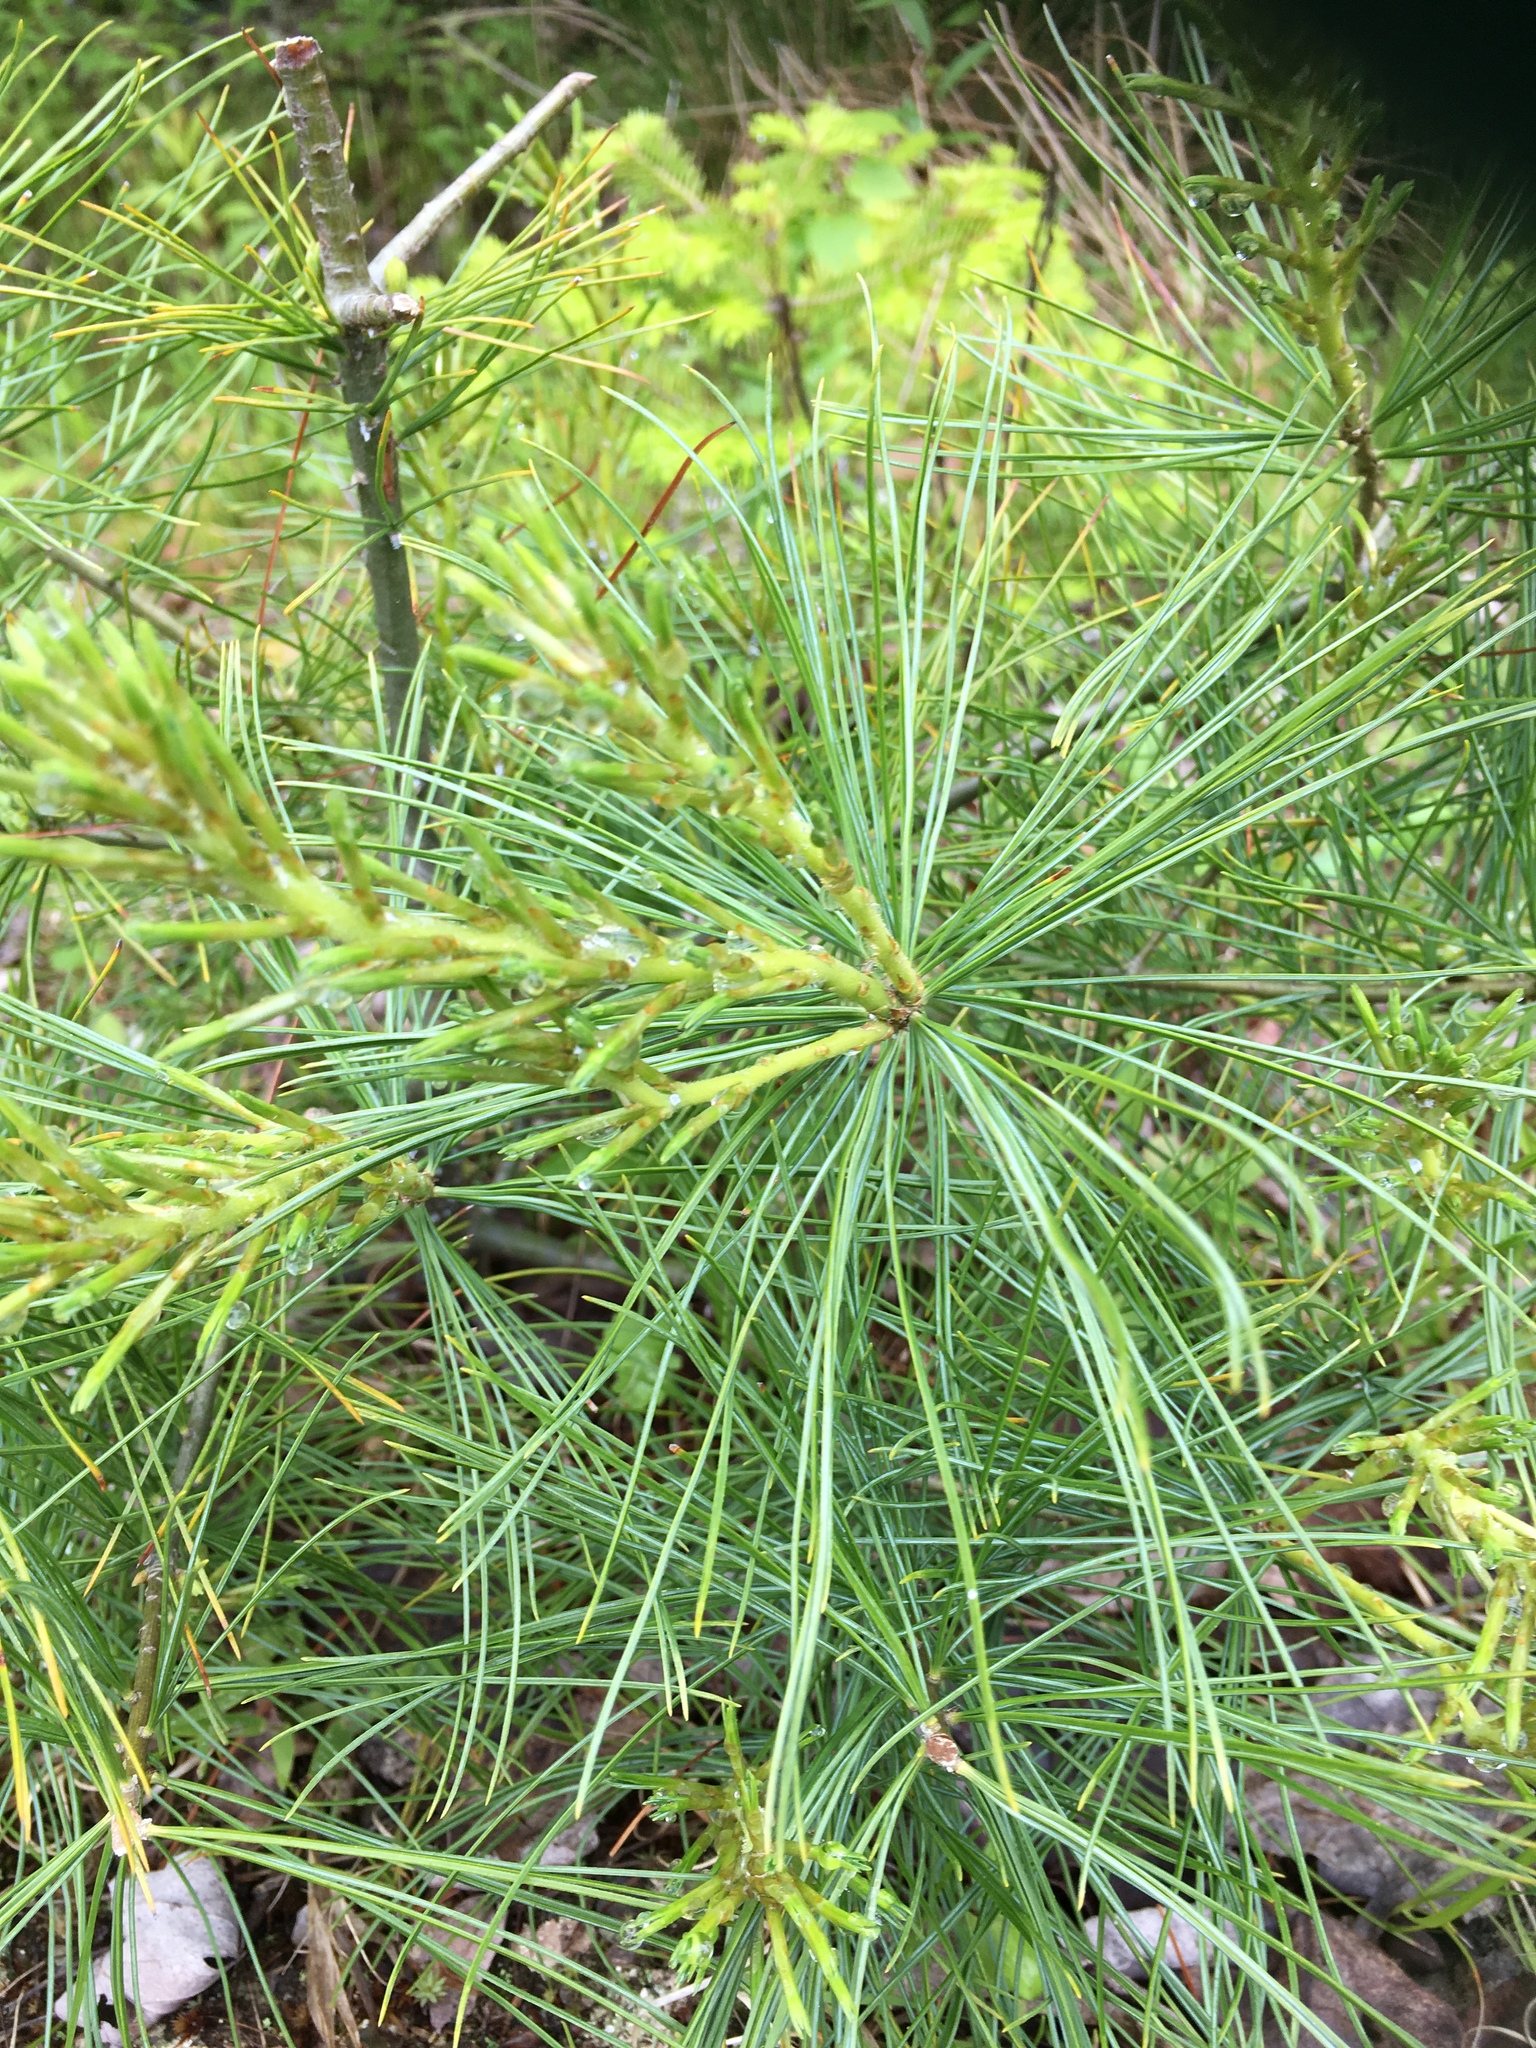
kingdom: Plantae
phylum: Tracheophyta
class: Pinopsida
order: Pinales
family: Pinaceae
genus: Pinus
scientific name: Pinus strobus
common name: Weymouth pine
